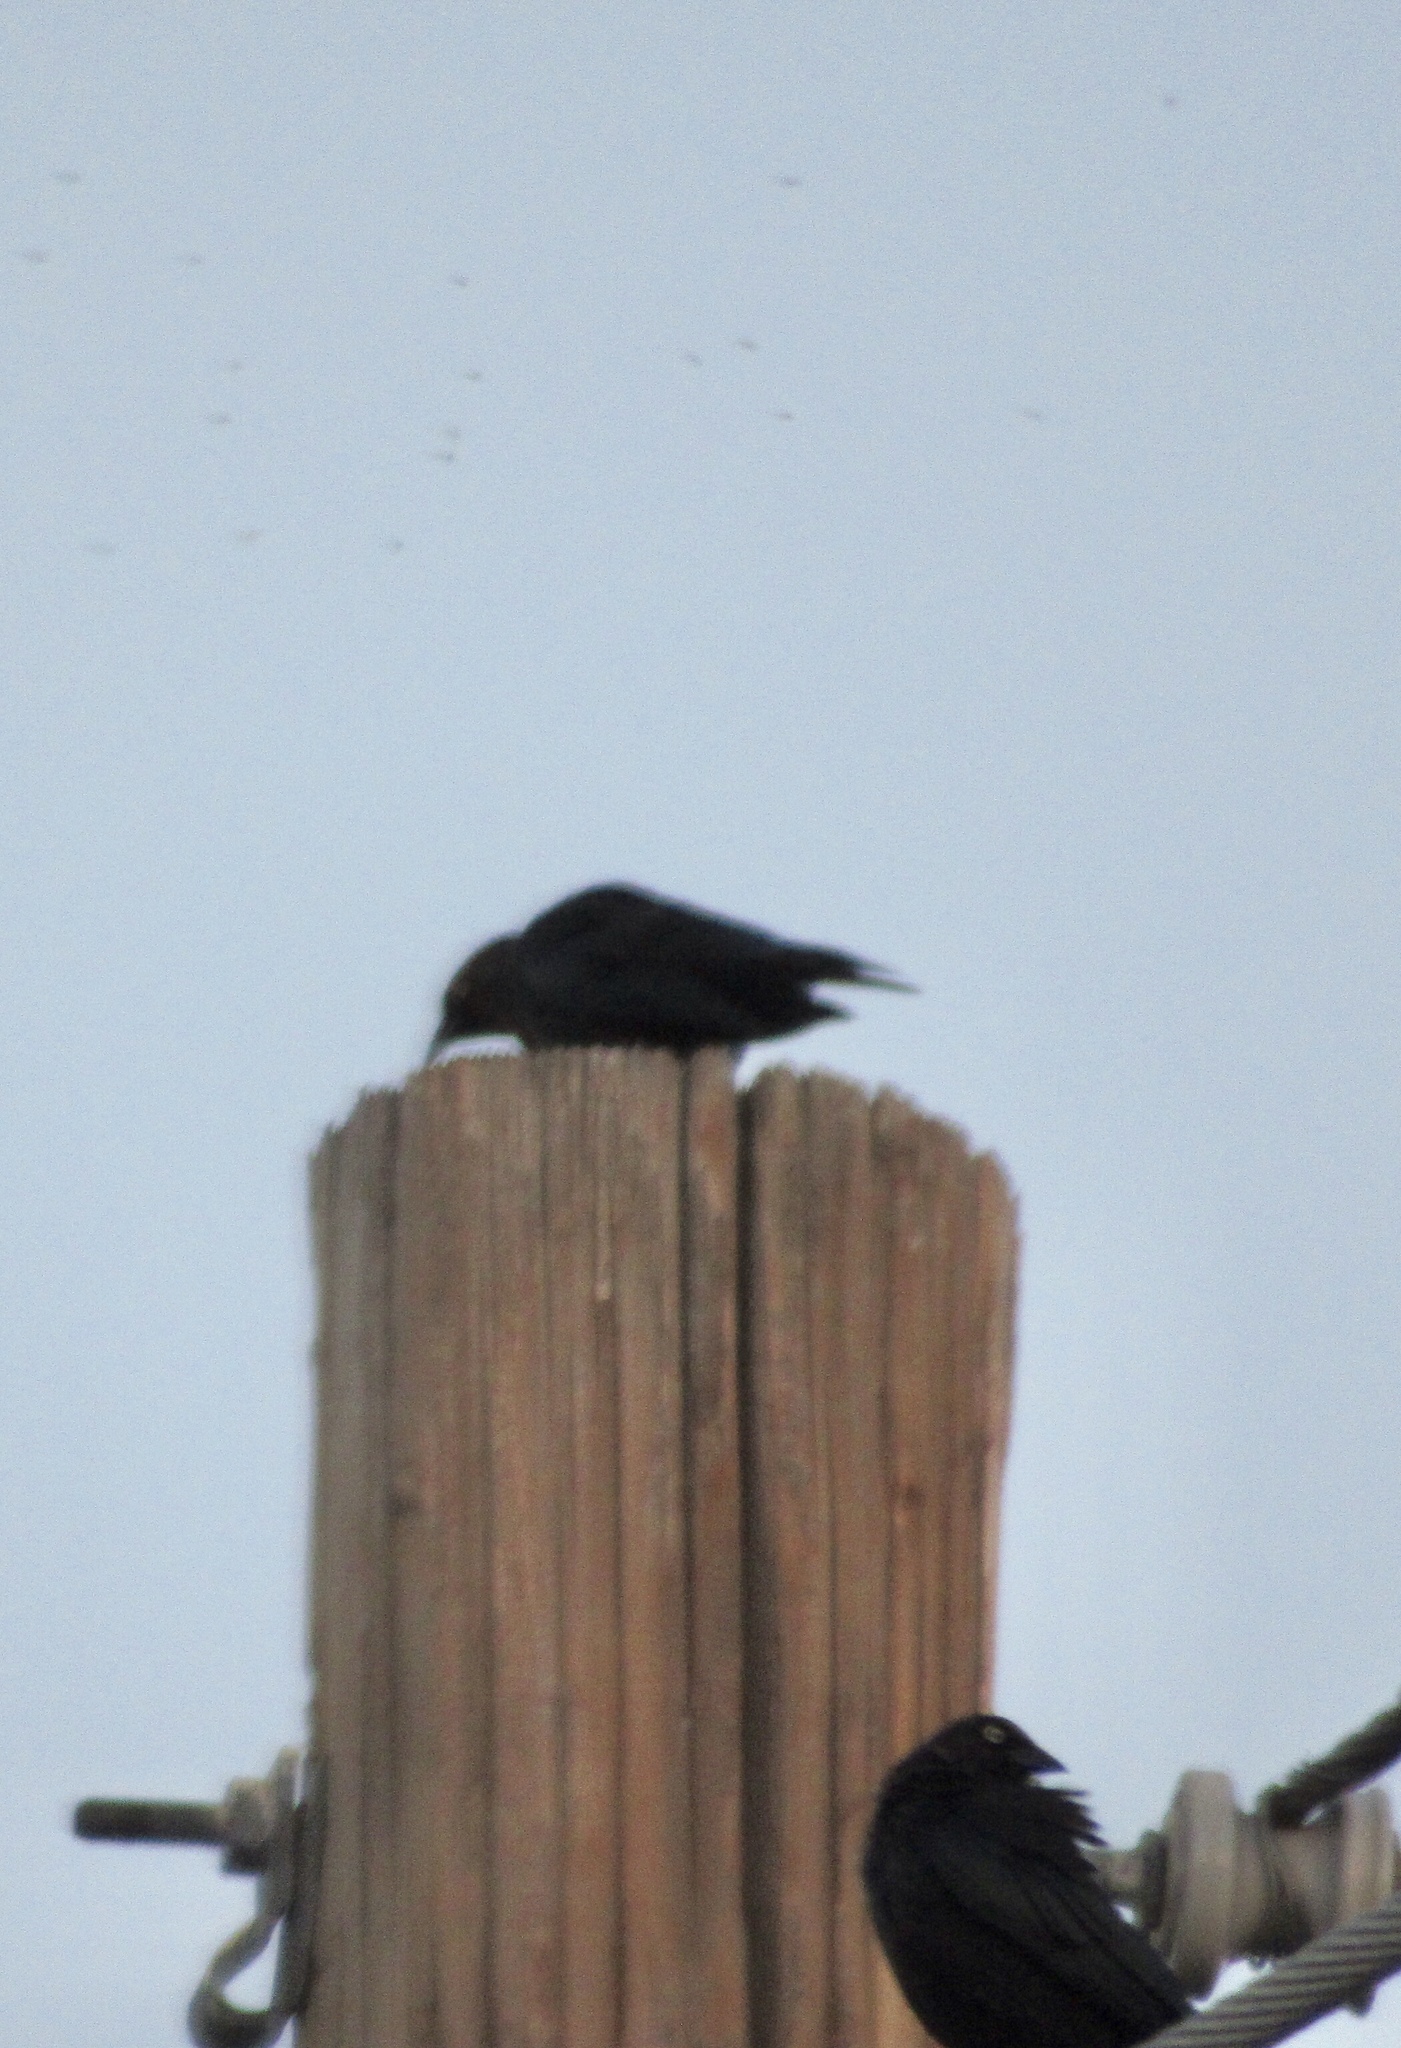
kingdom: Animalia
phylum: Chordata
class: Aves
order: Passeriformes
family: Icteridae
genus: Euphagus
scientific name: Euphagus cyanocephalus
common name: Brewer's blackbird
